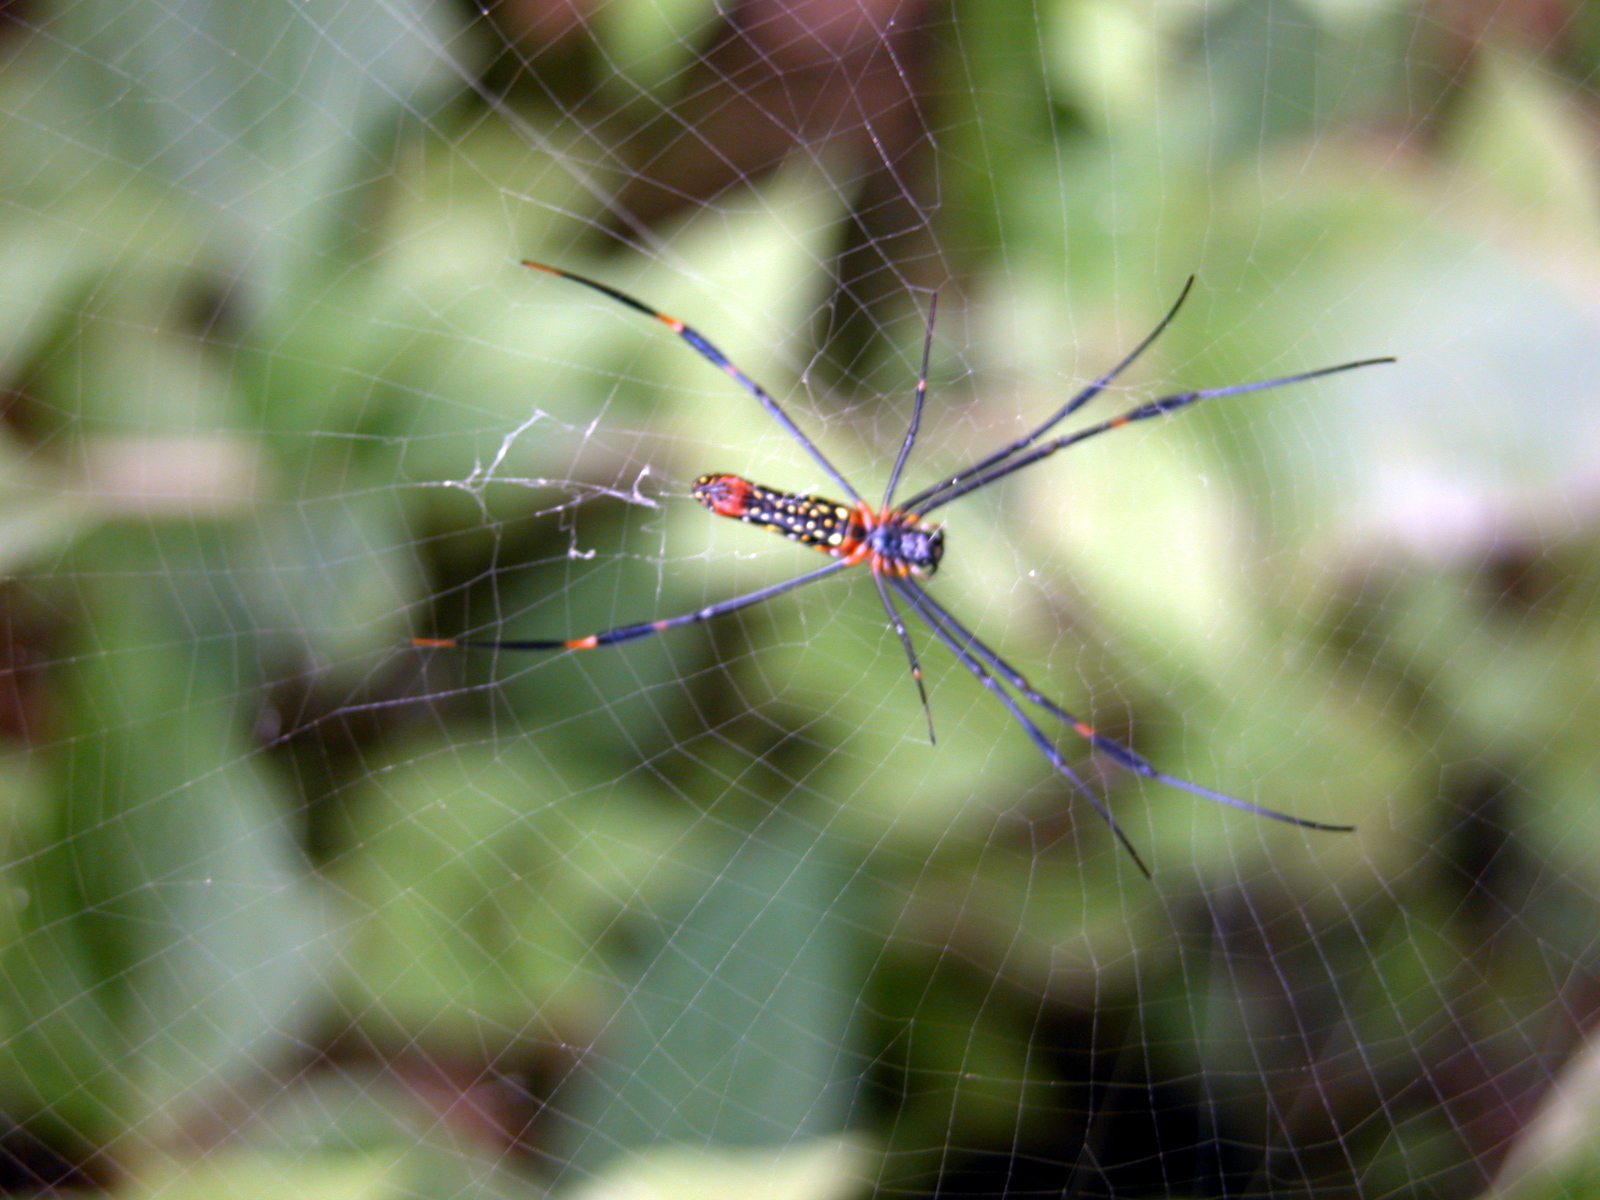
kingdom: Animalia
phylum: Arthropoda
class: Arachnida
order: Araneae
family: Araneidae
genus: Nephila
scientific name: Nephila pilipes
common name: Giant golden orb weaver
